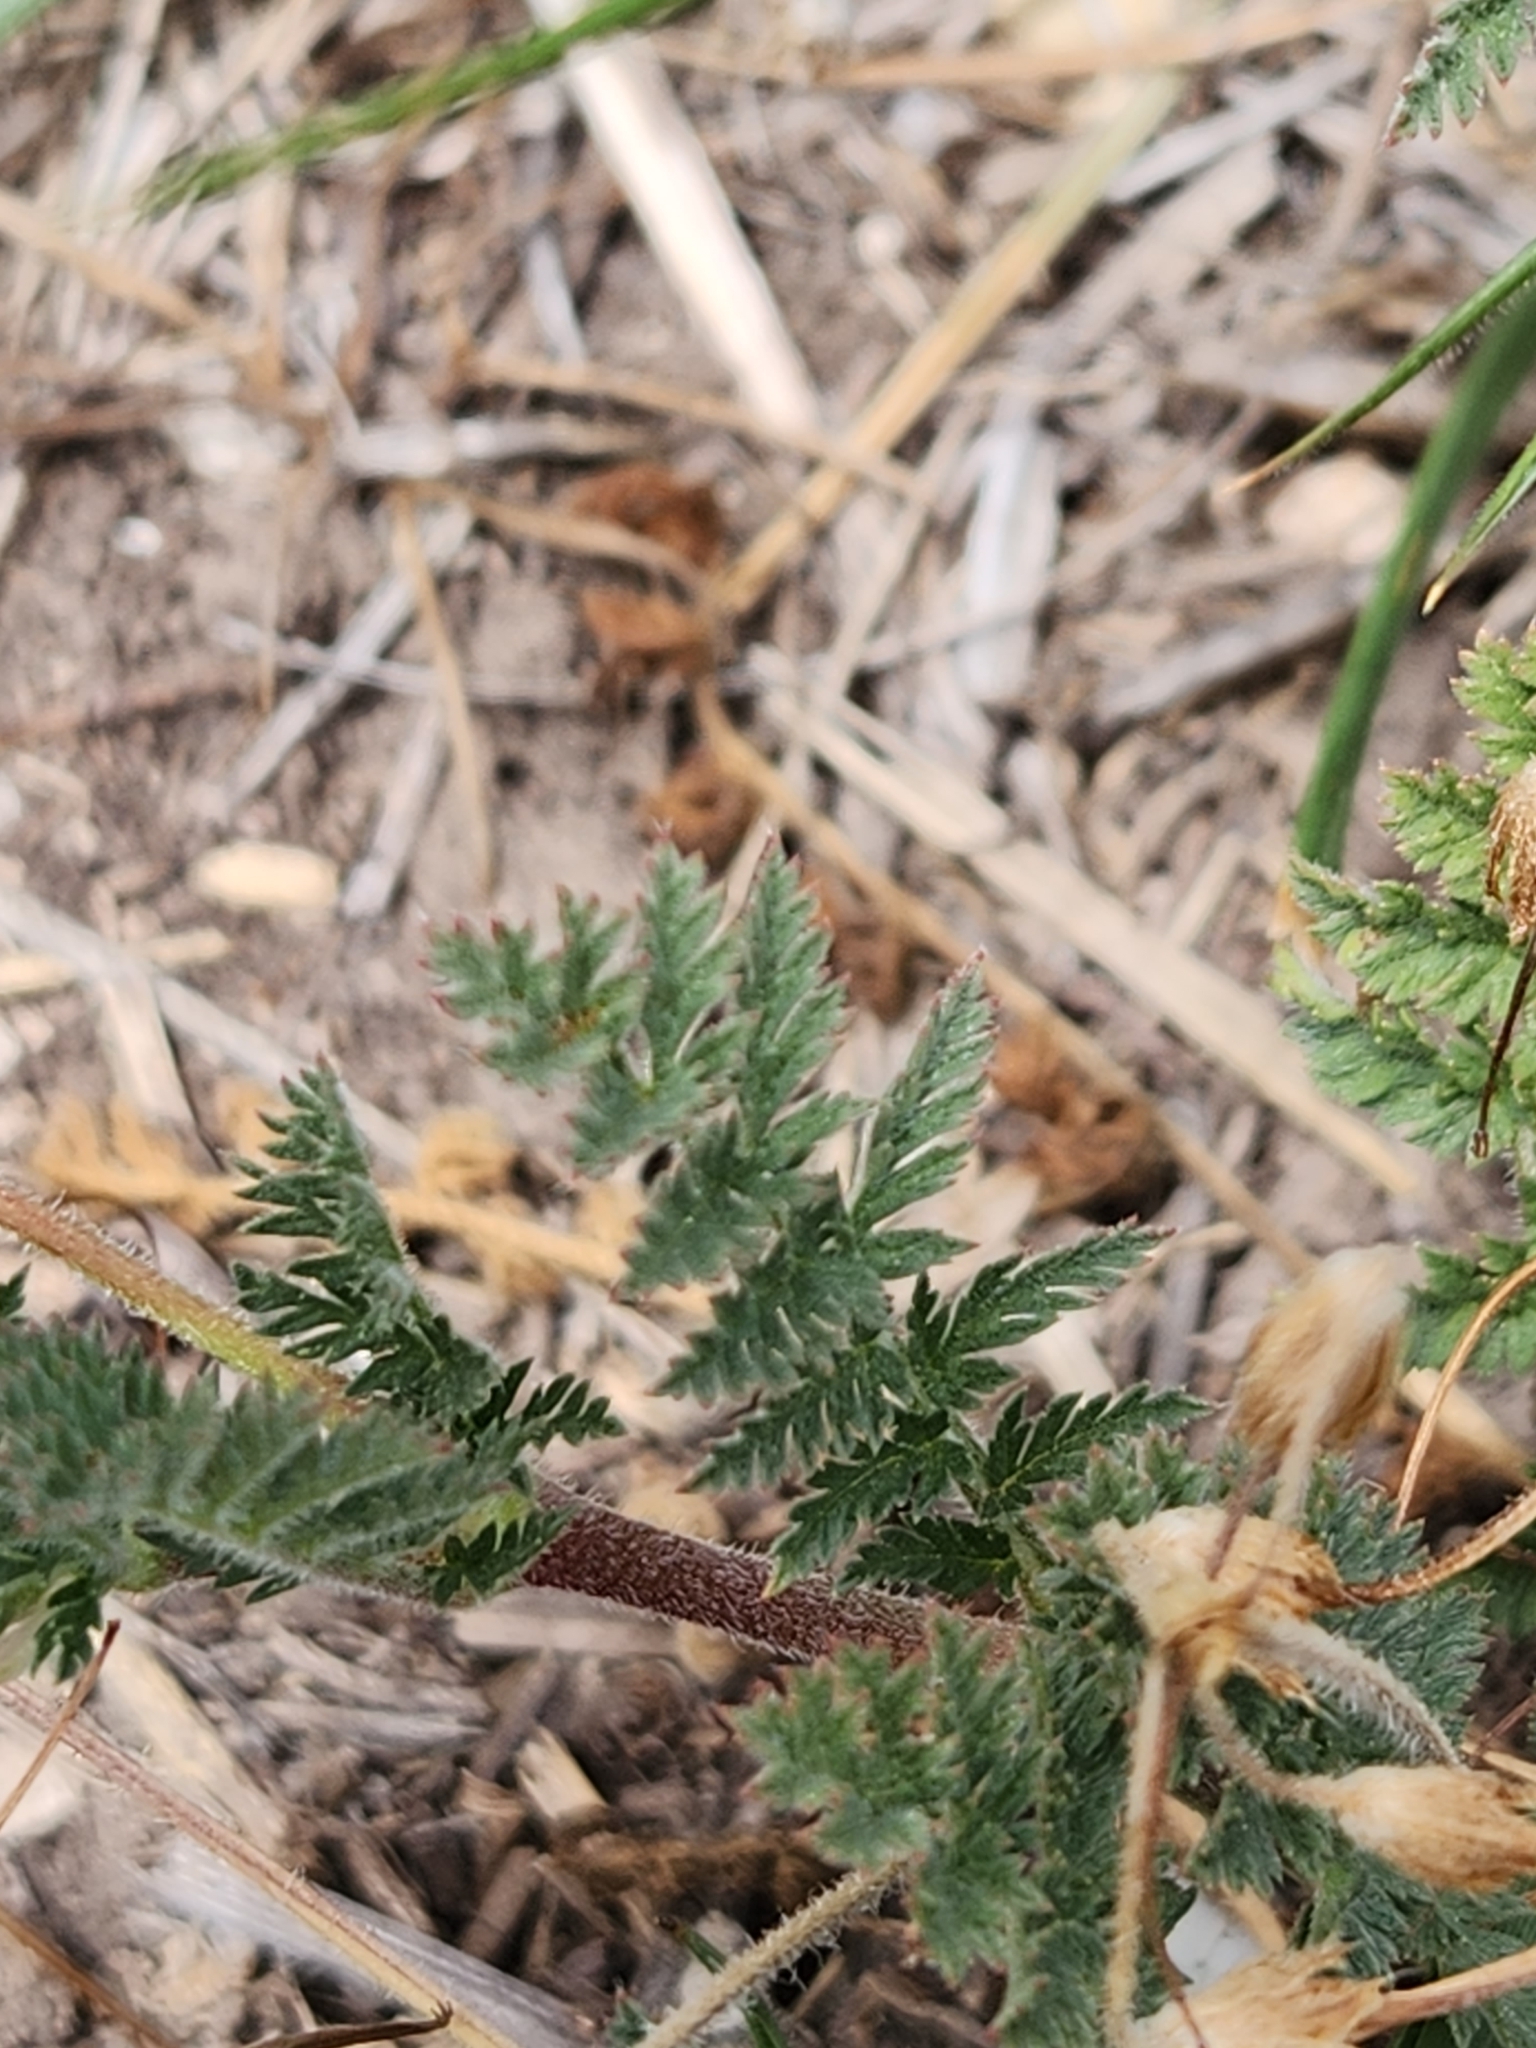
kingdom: Plantae
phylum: Tracheophyta
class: Magnoliopsida
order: Geraniales
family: Geraniaceae
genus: Erodium
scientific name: Erodium cicutarium
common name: Common stork's-bill
